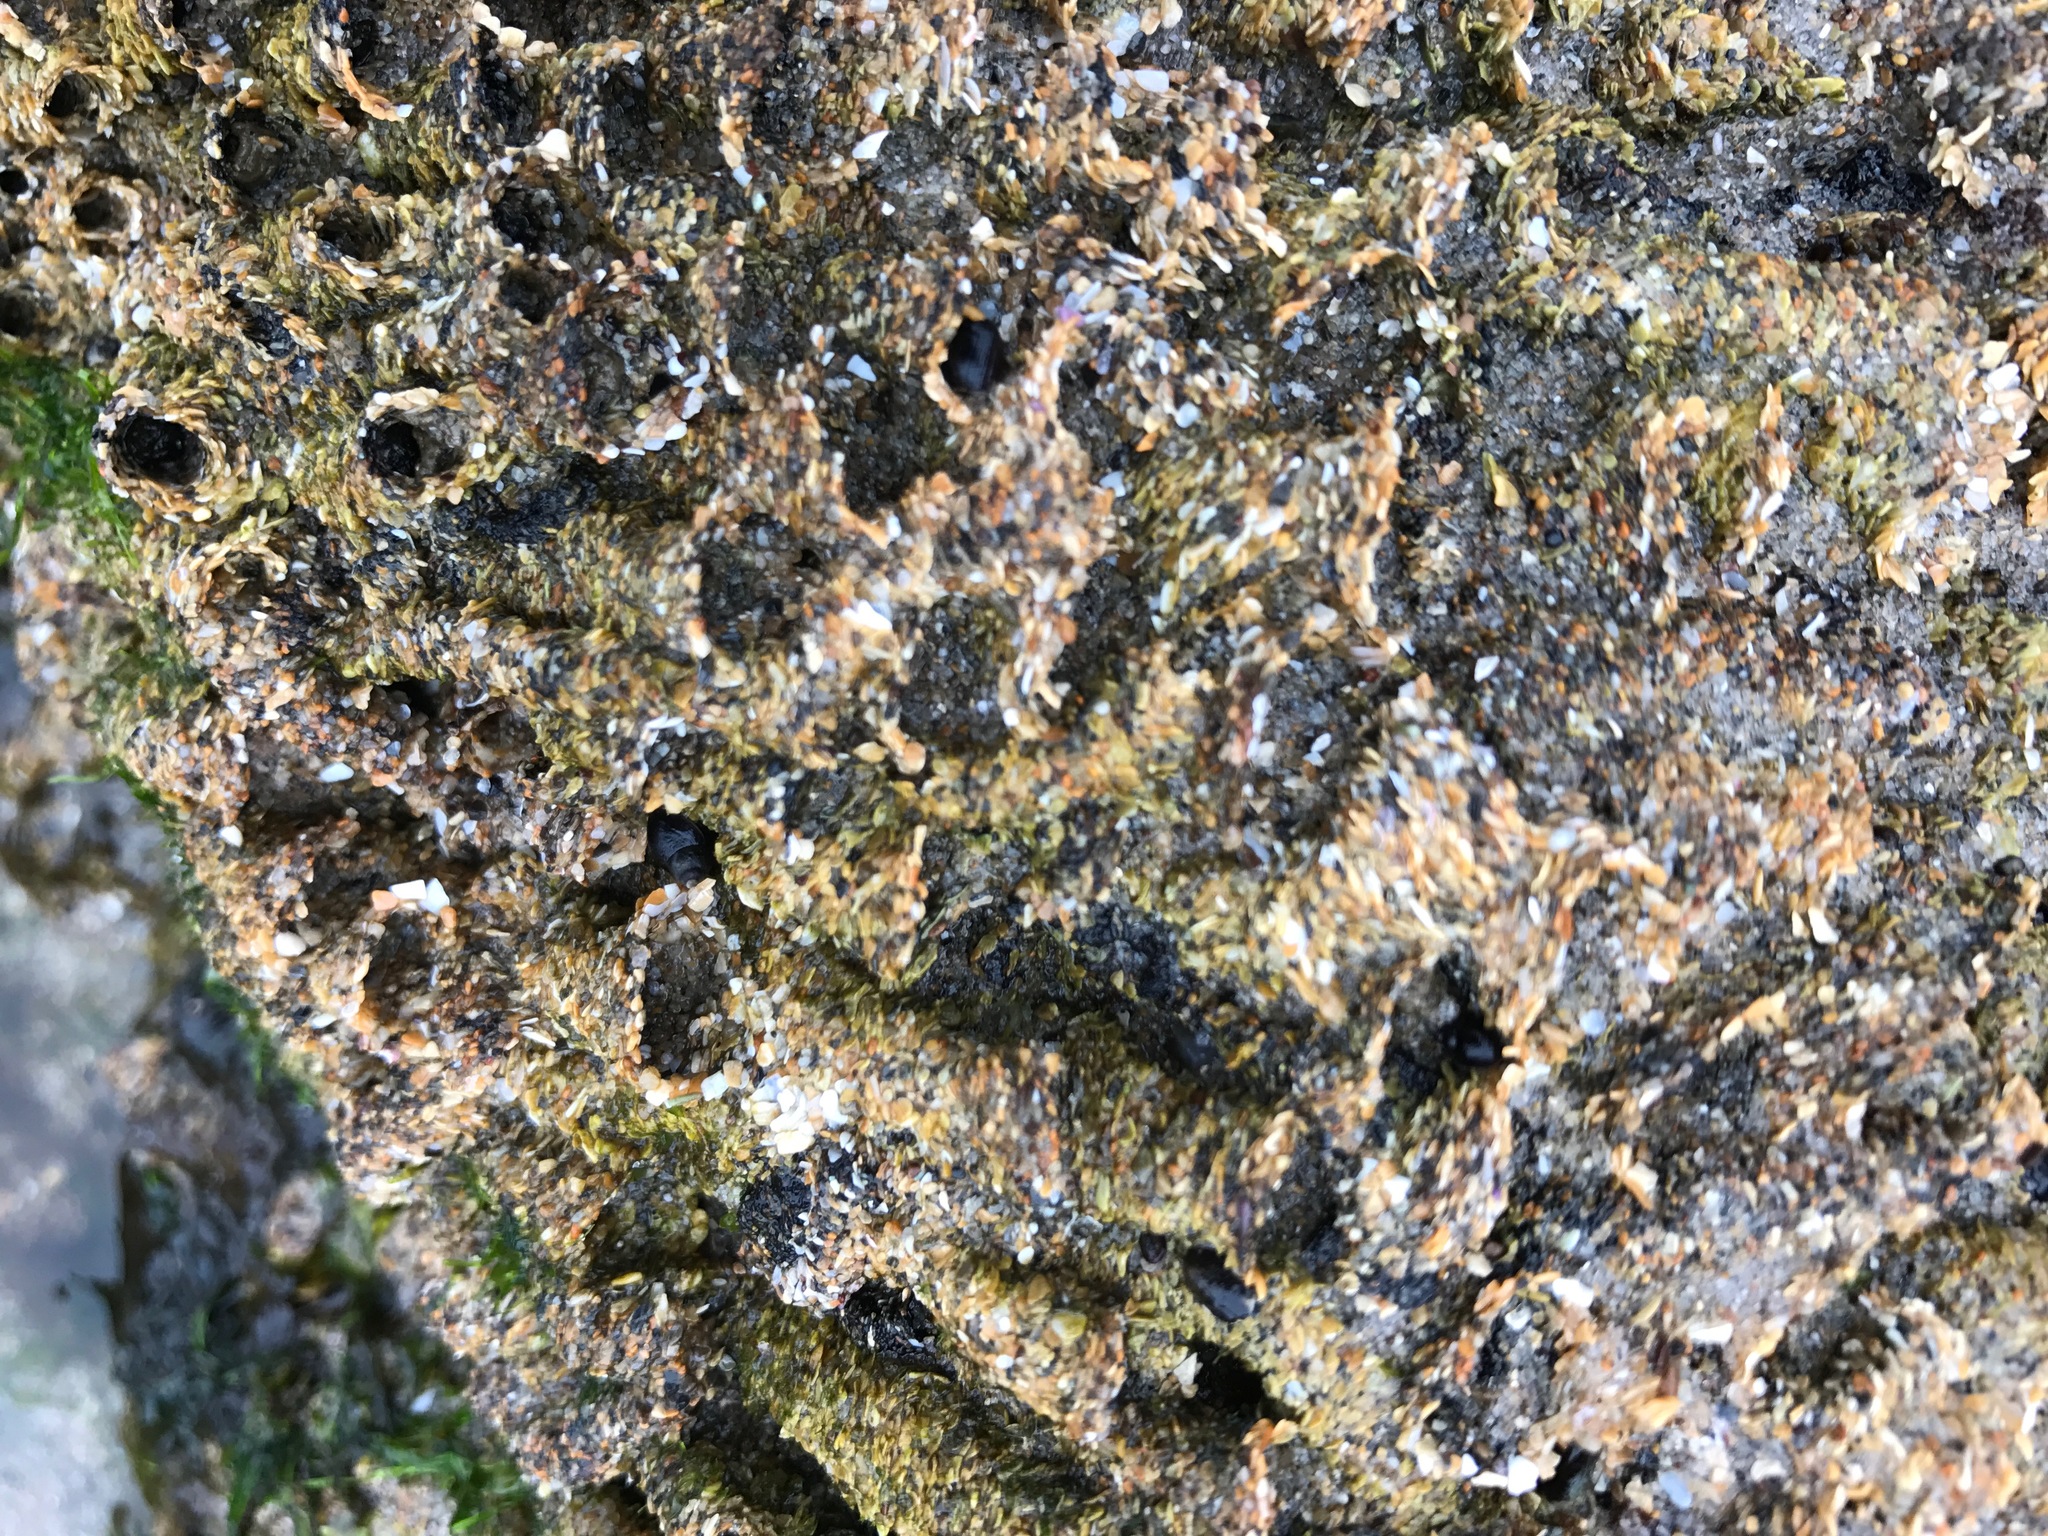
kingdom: Animalia
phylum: Annelida
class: Polychaeta
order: Sabellida
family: Sabellariidae
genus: Phragmatopoma
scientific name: Phragmatopoma californica
